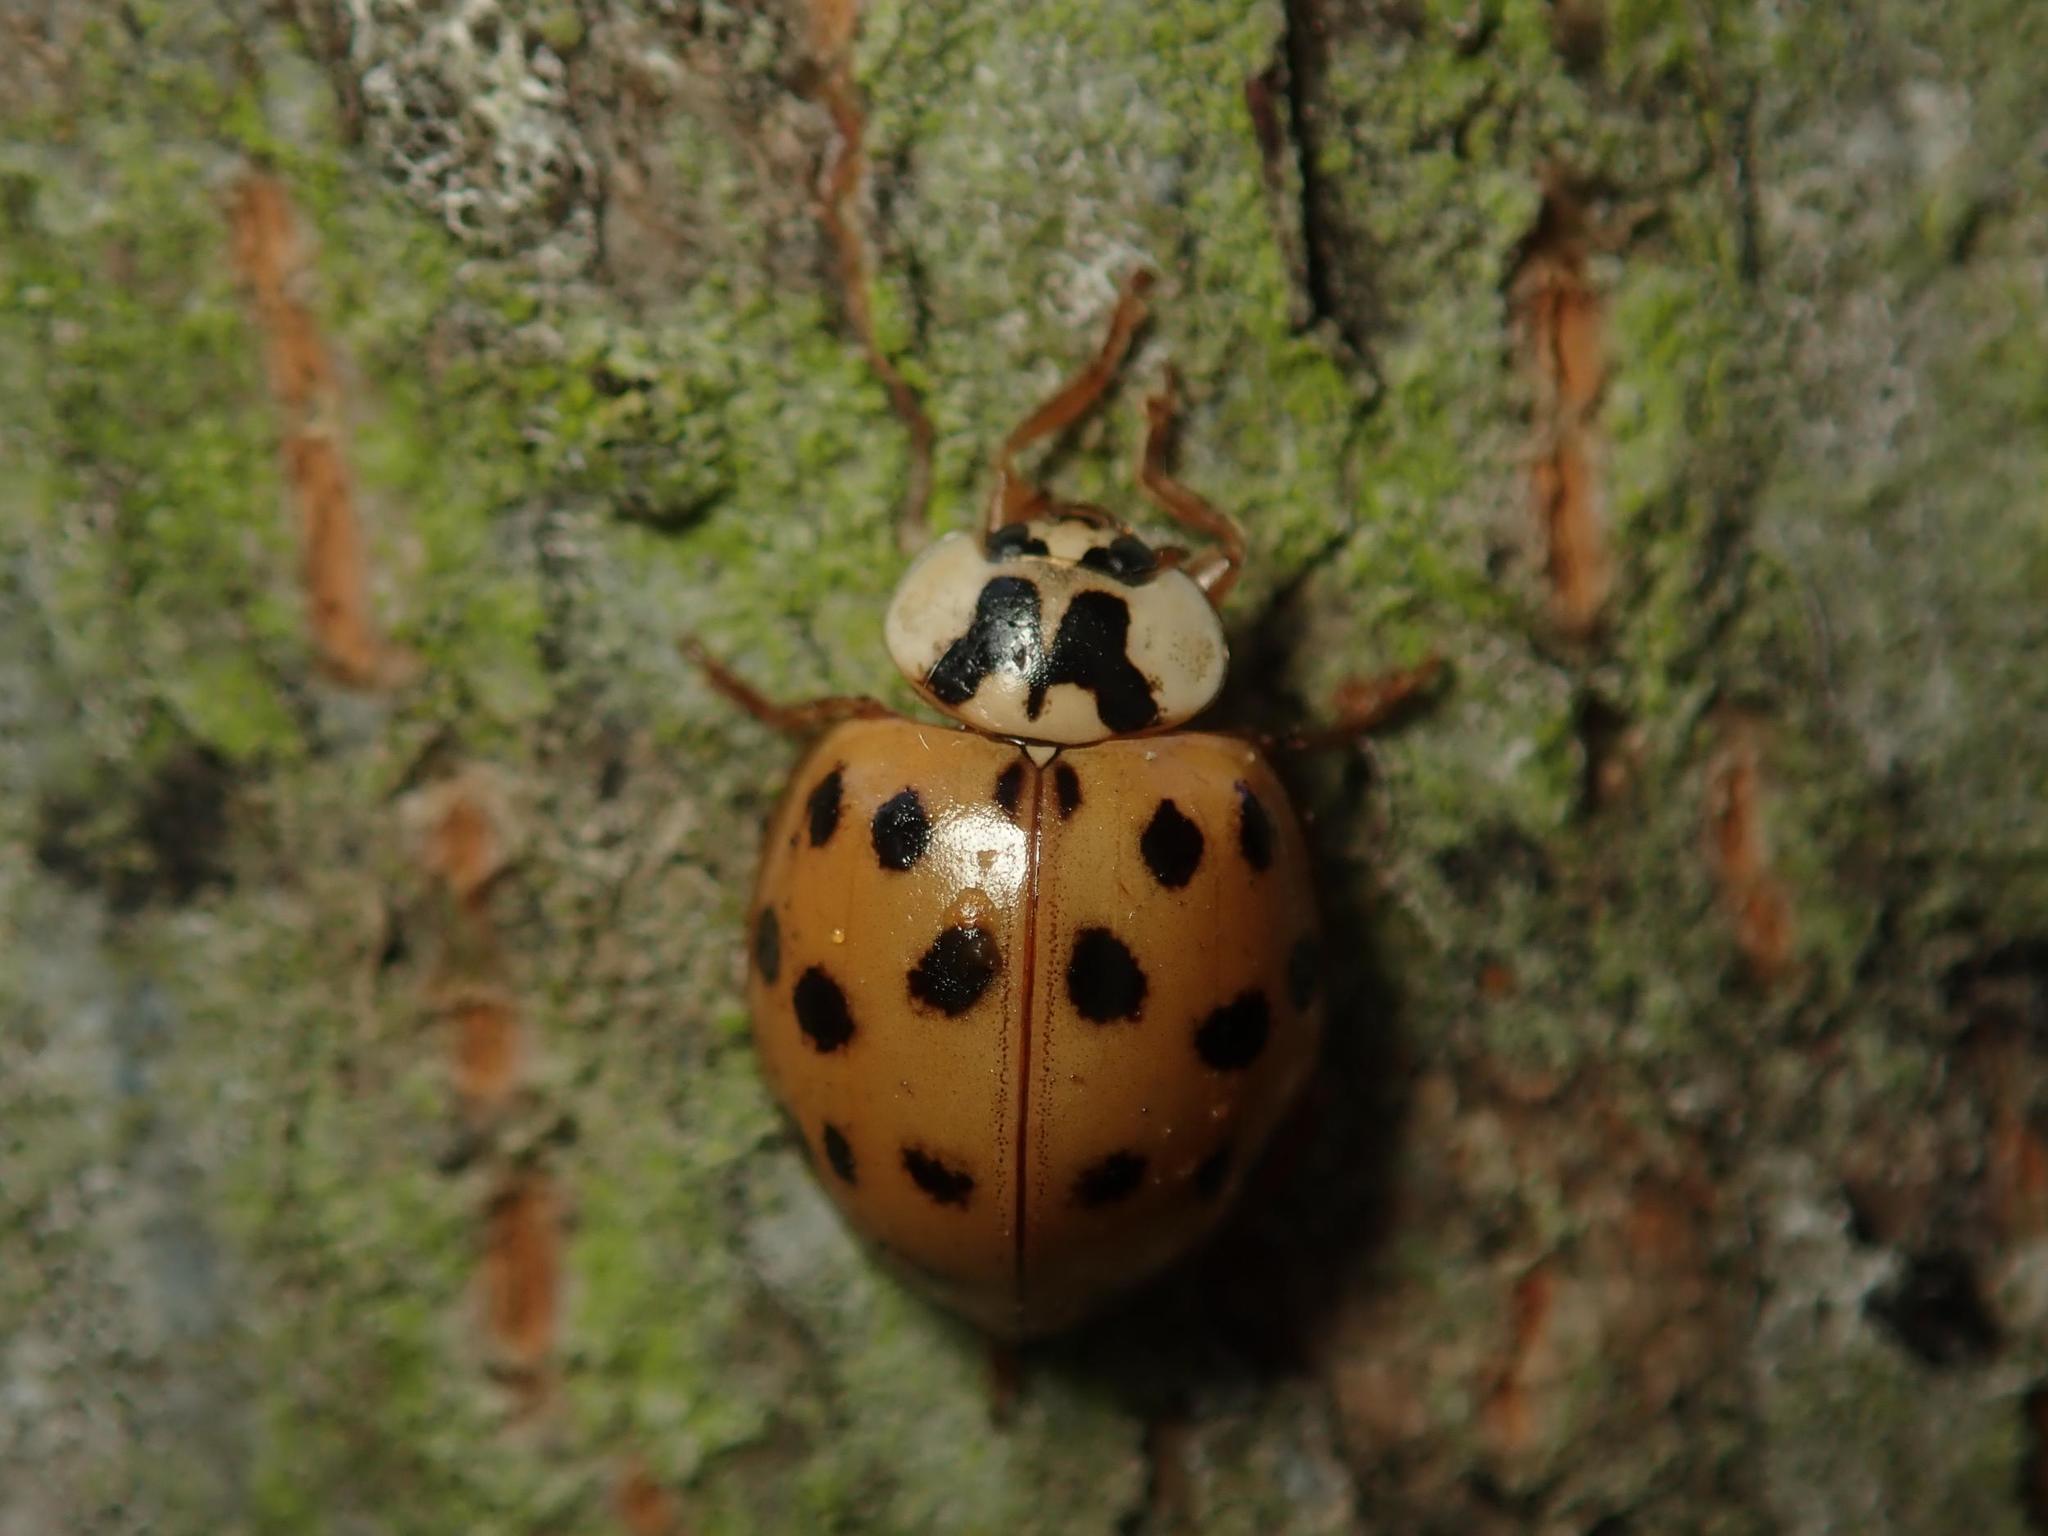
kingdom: Animalia
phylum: Arthropoda
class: Insecta
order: Coleoptera
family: Coccinellidae
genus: Harmonia
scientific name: Harmonia axyridis
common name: Harlequin ladybird
